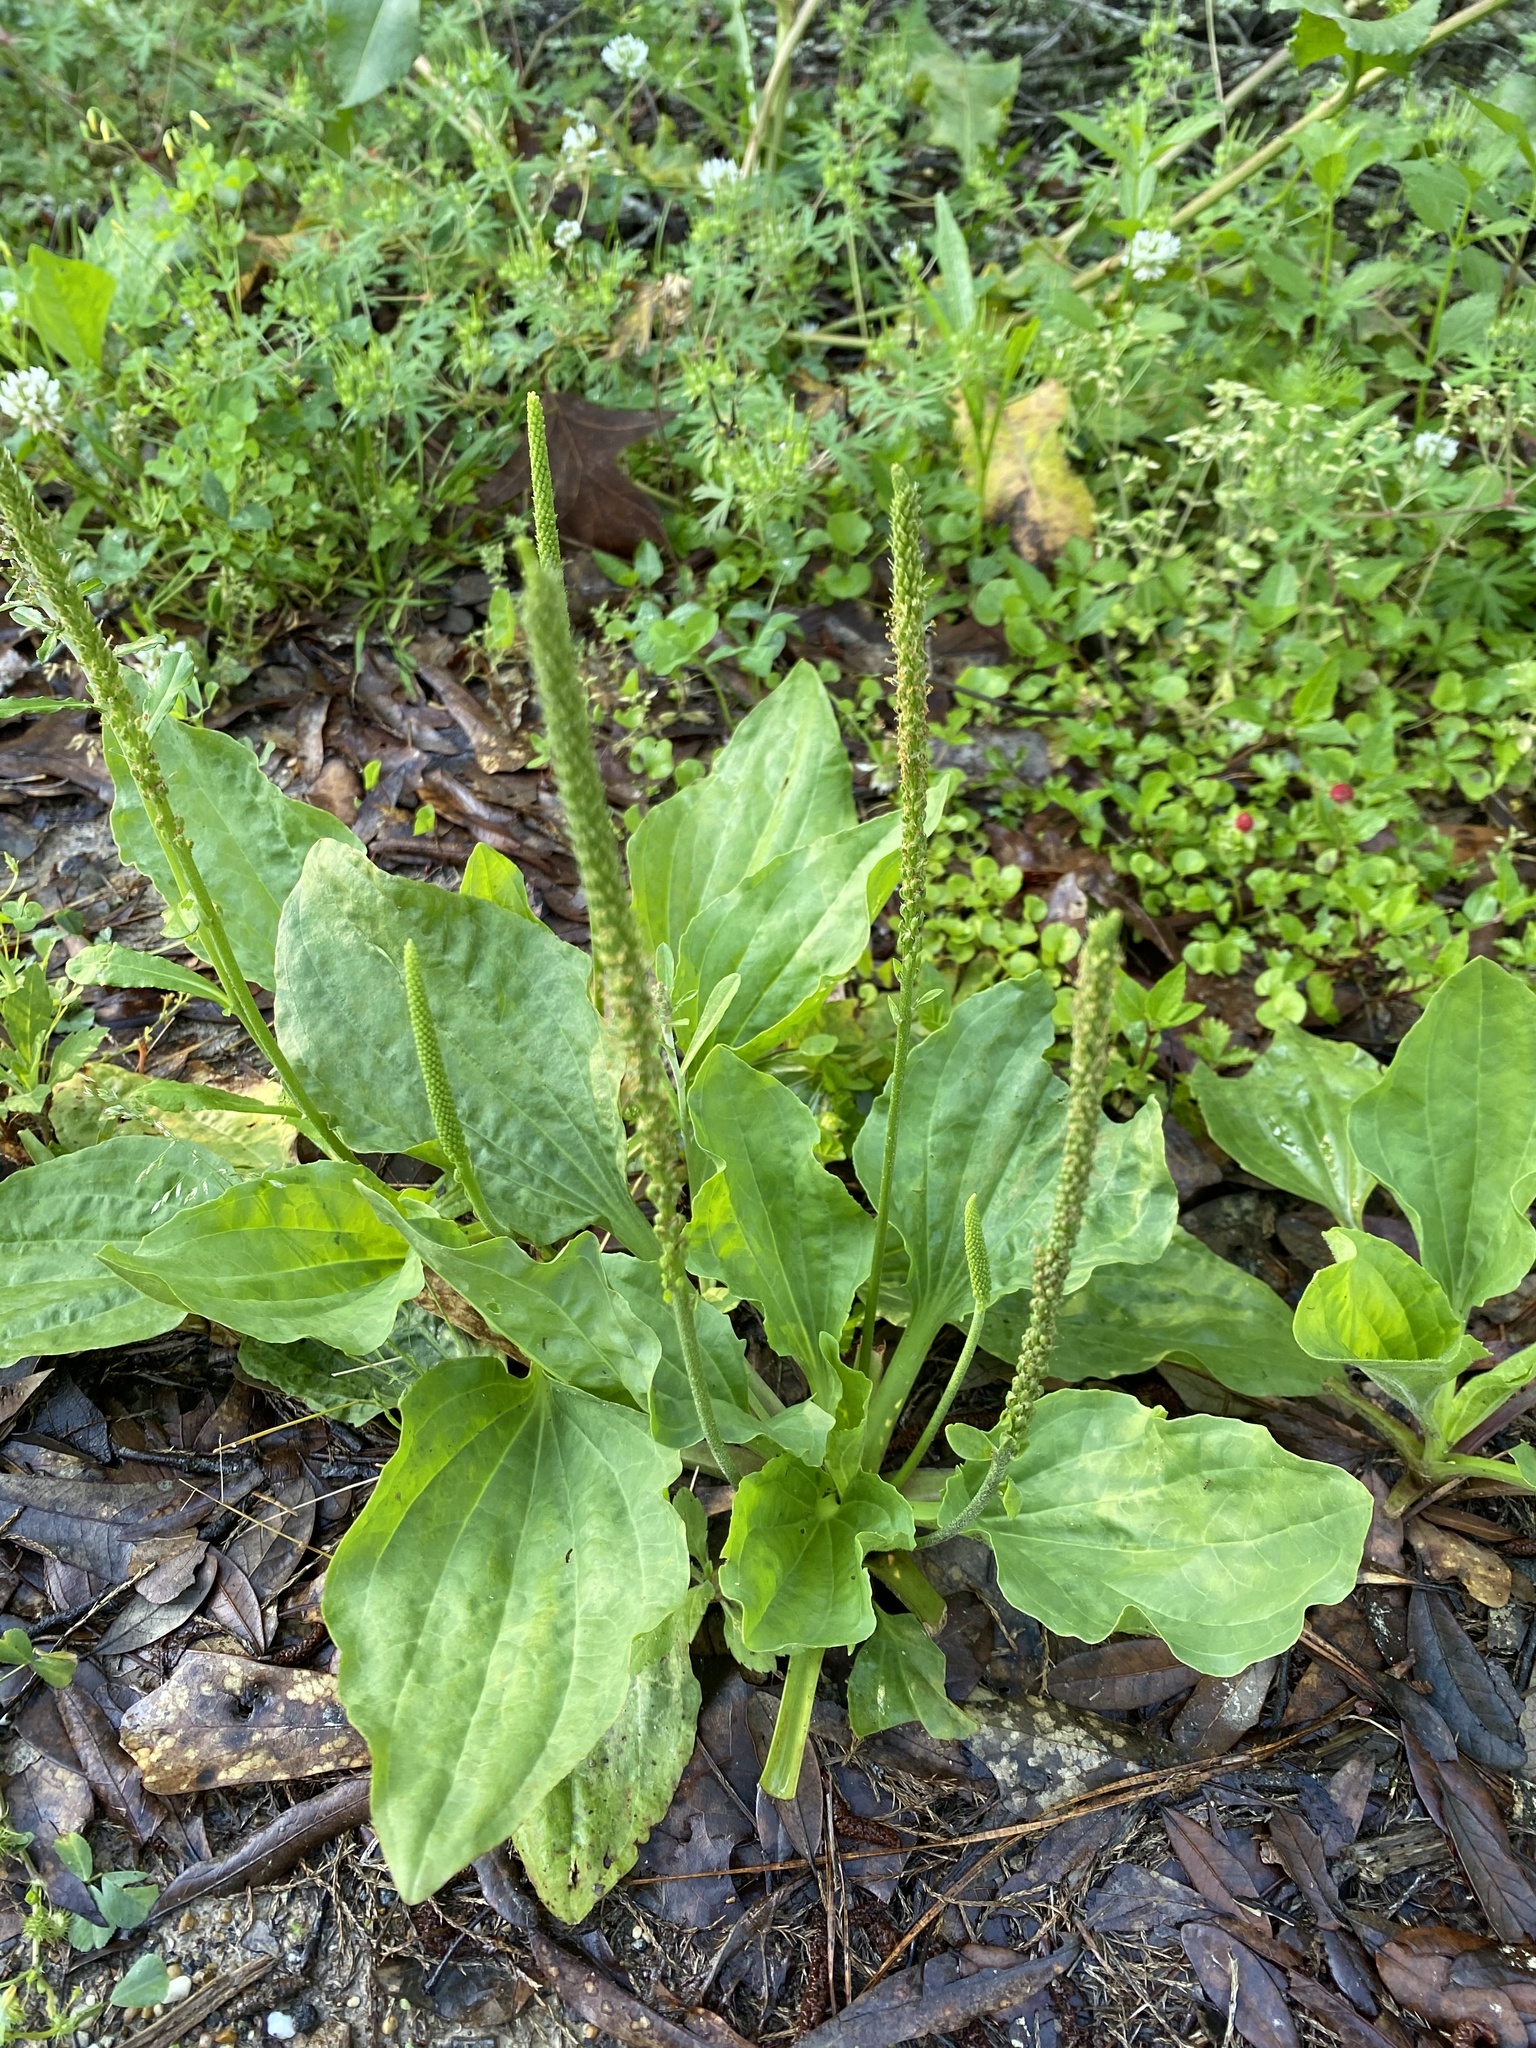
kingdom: Plantae
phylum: Tracheophyta
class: Magnoliopsida
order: Lamiales
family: Plantaginaceae
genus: Plantago
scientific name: Plantago major
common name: Common plantain
